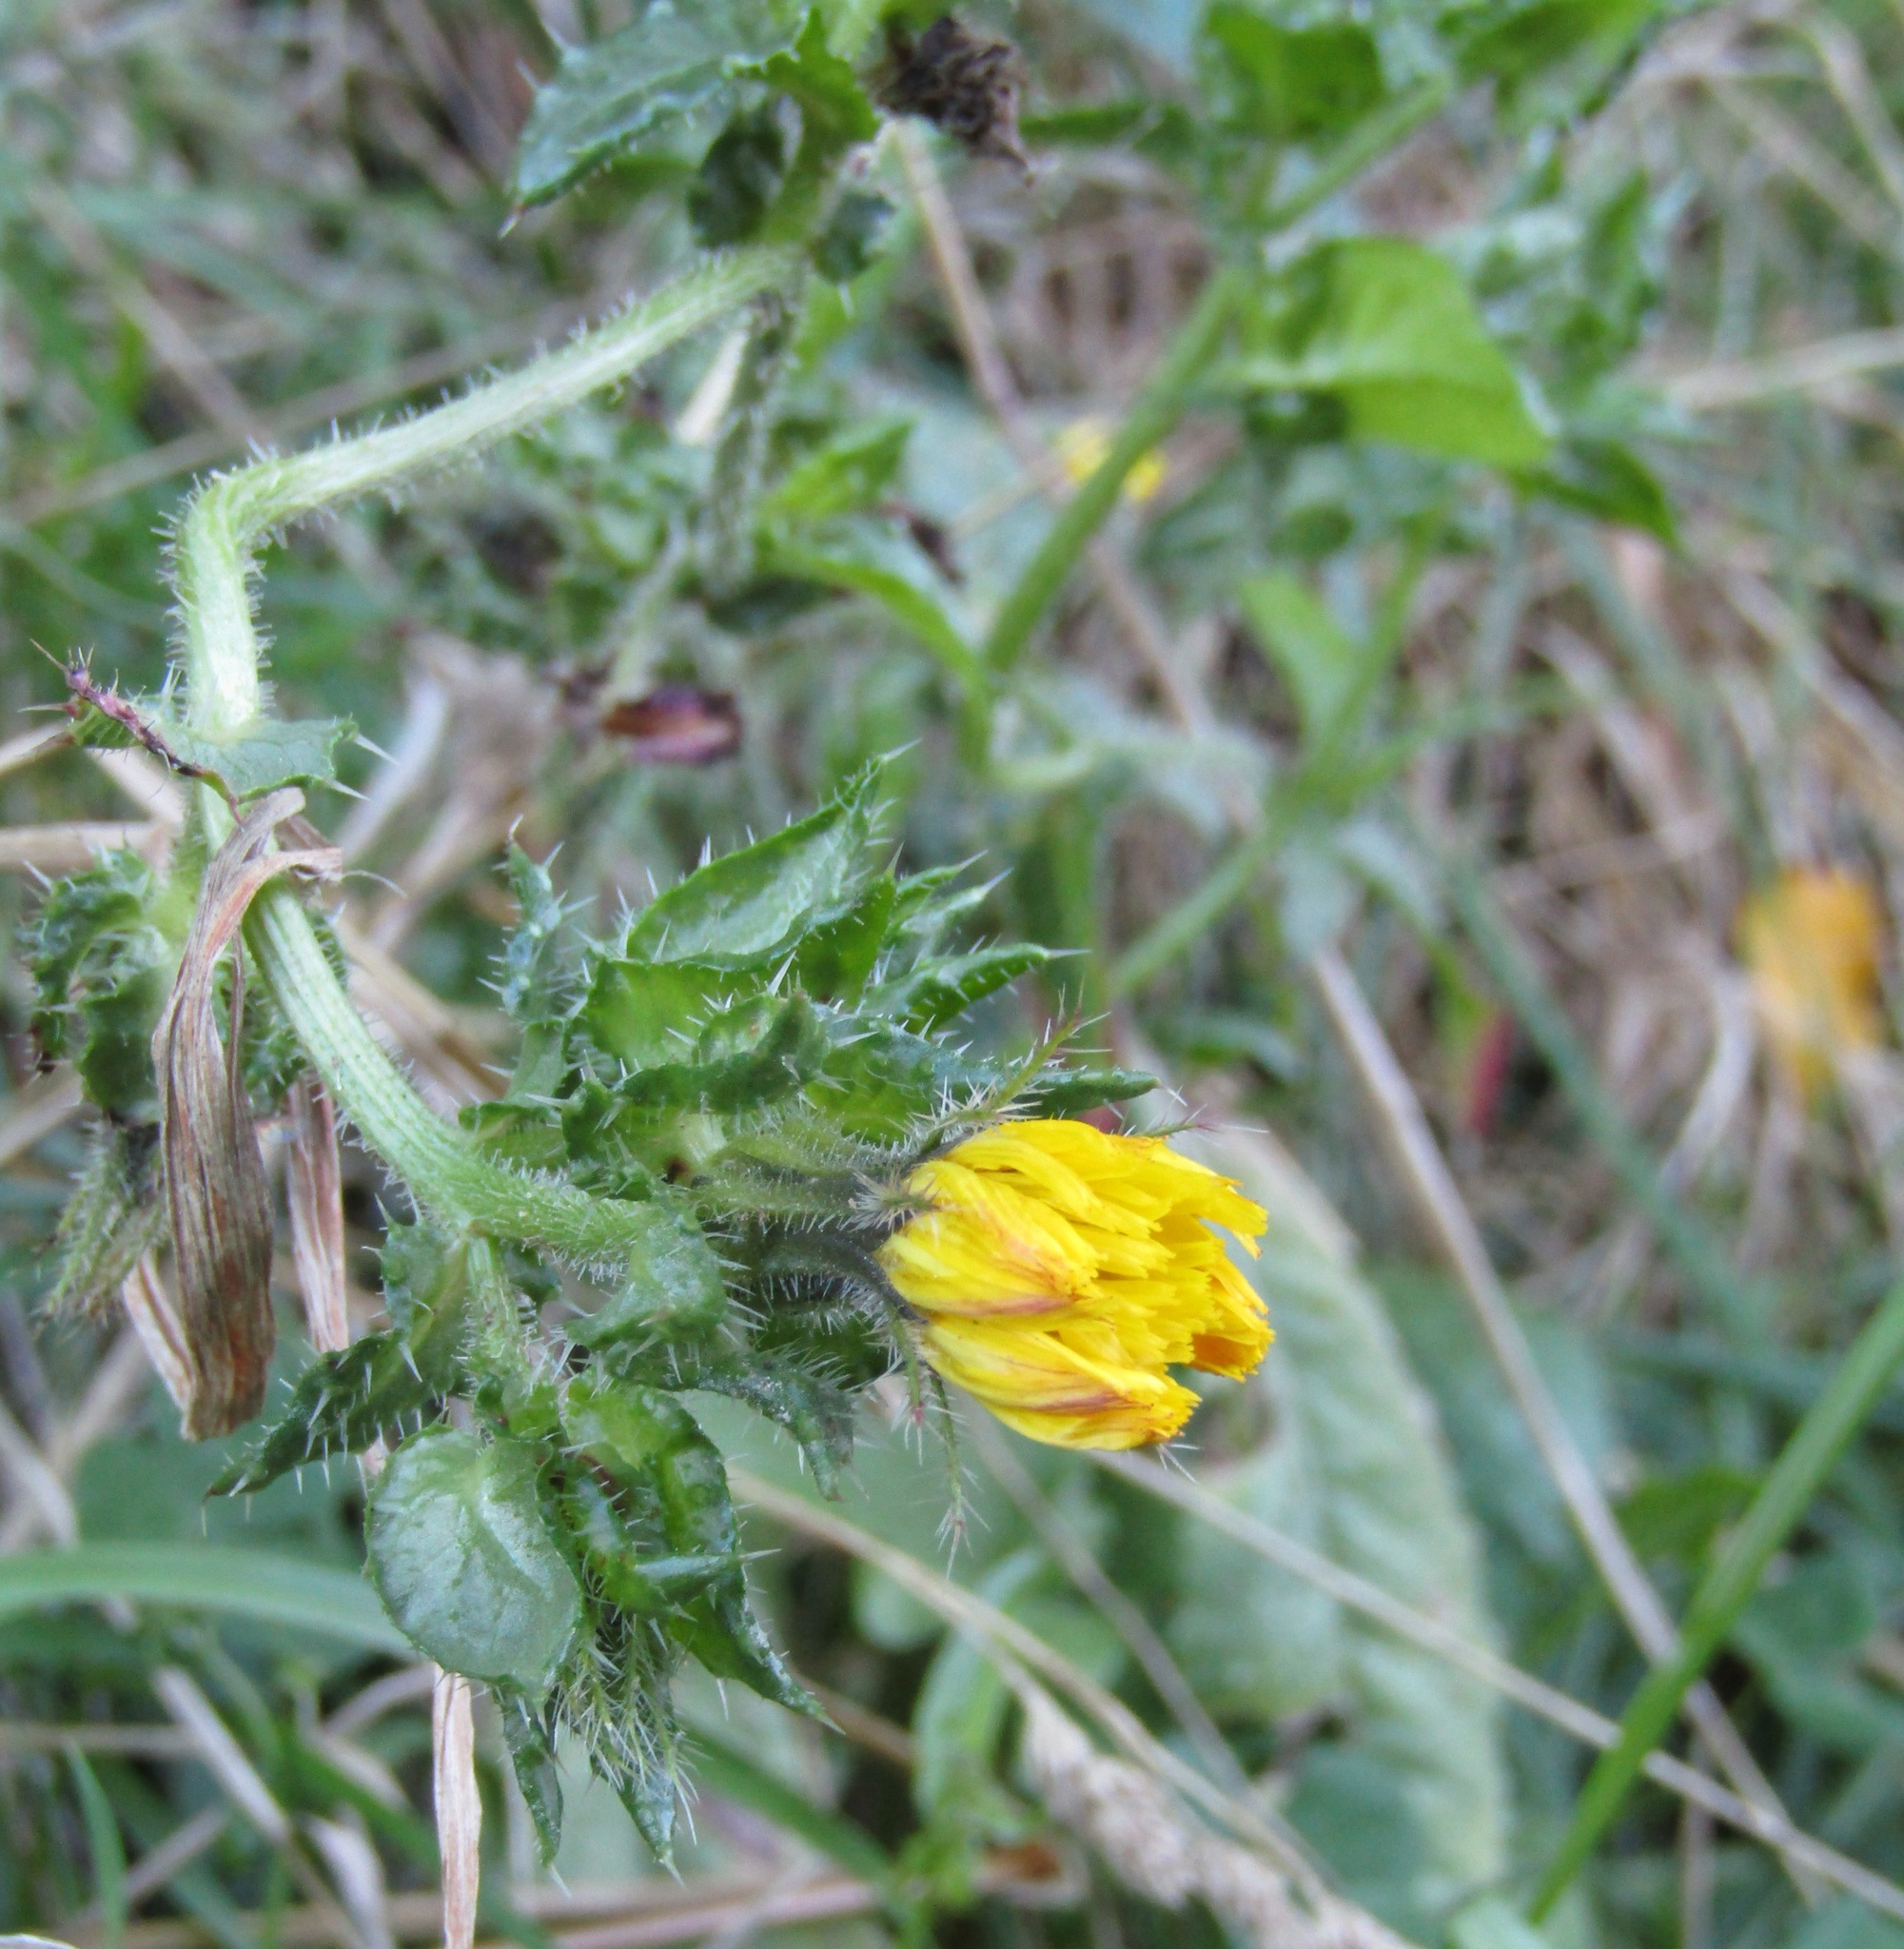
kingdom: Plantae
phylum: Tracheophyta
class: Magnoliopsida
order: Asterales
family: Asteraceae
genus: Helminthotheca
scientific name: Helminthotheca echioides
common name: Ox-tongue
